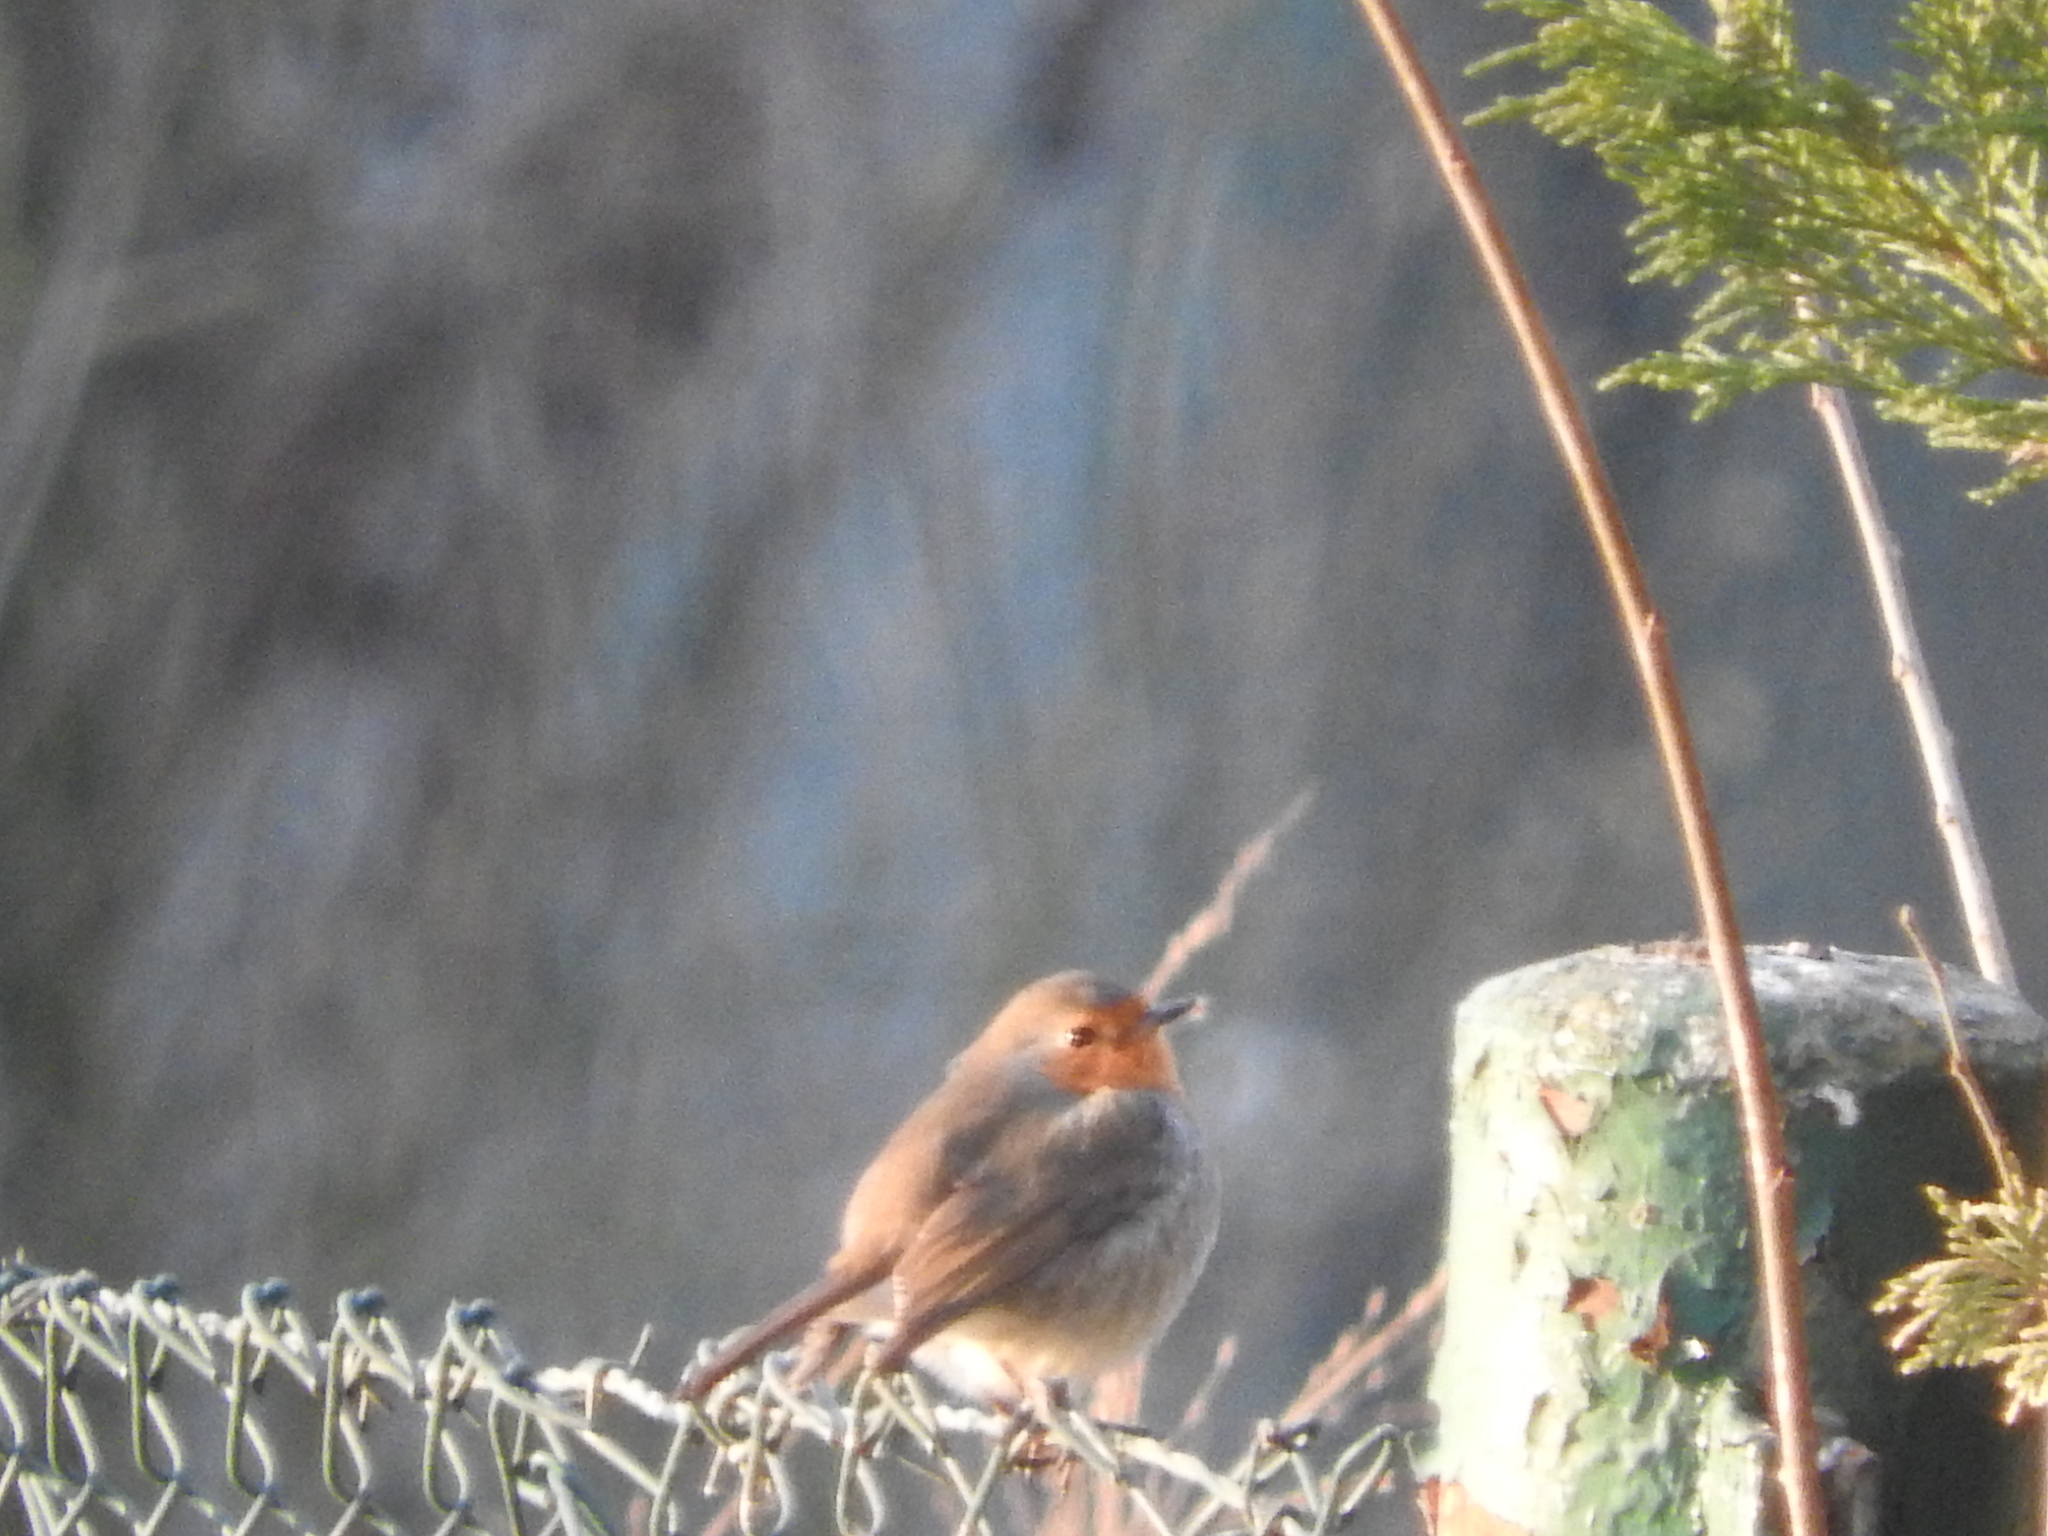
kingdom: Animalia
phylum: Chordata
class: Aves
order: Passeriformes
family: Muscicapidae
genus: Erithacus
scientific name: Erithacus rubecula
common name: European robin
